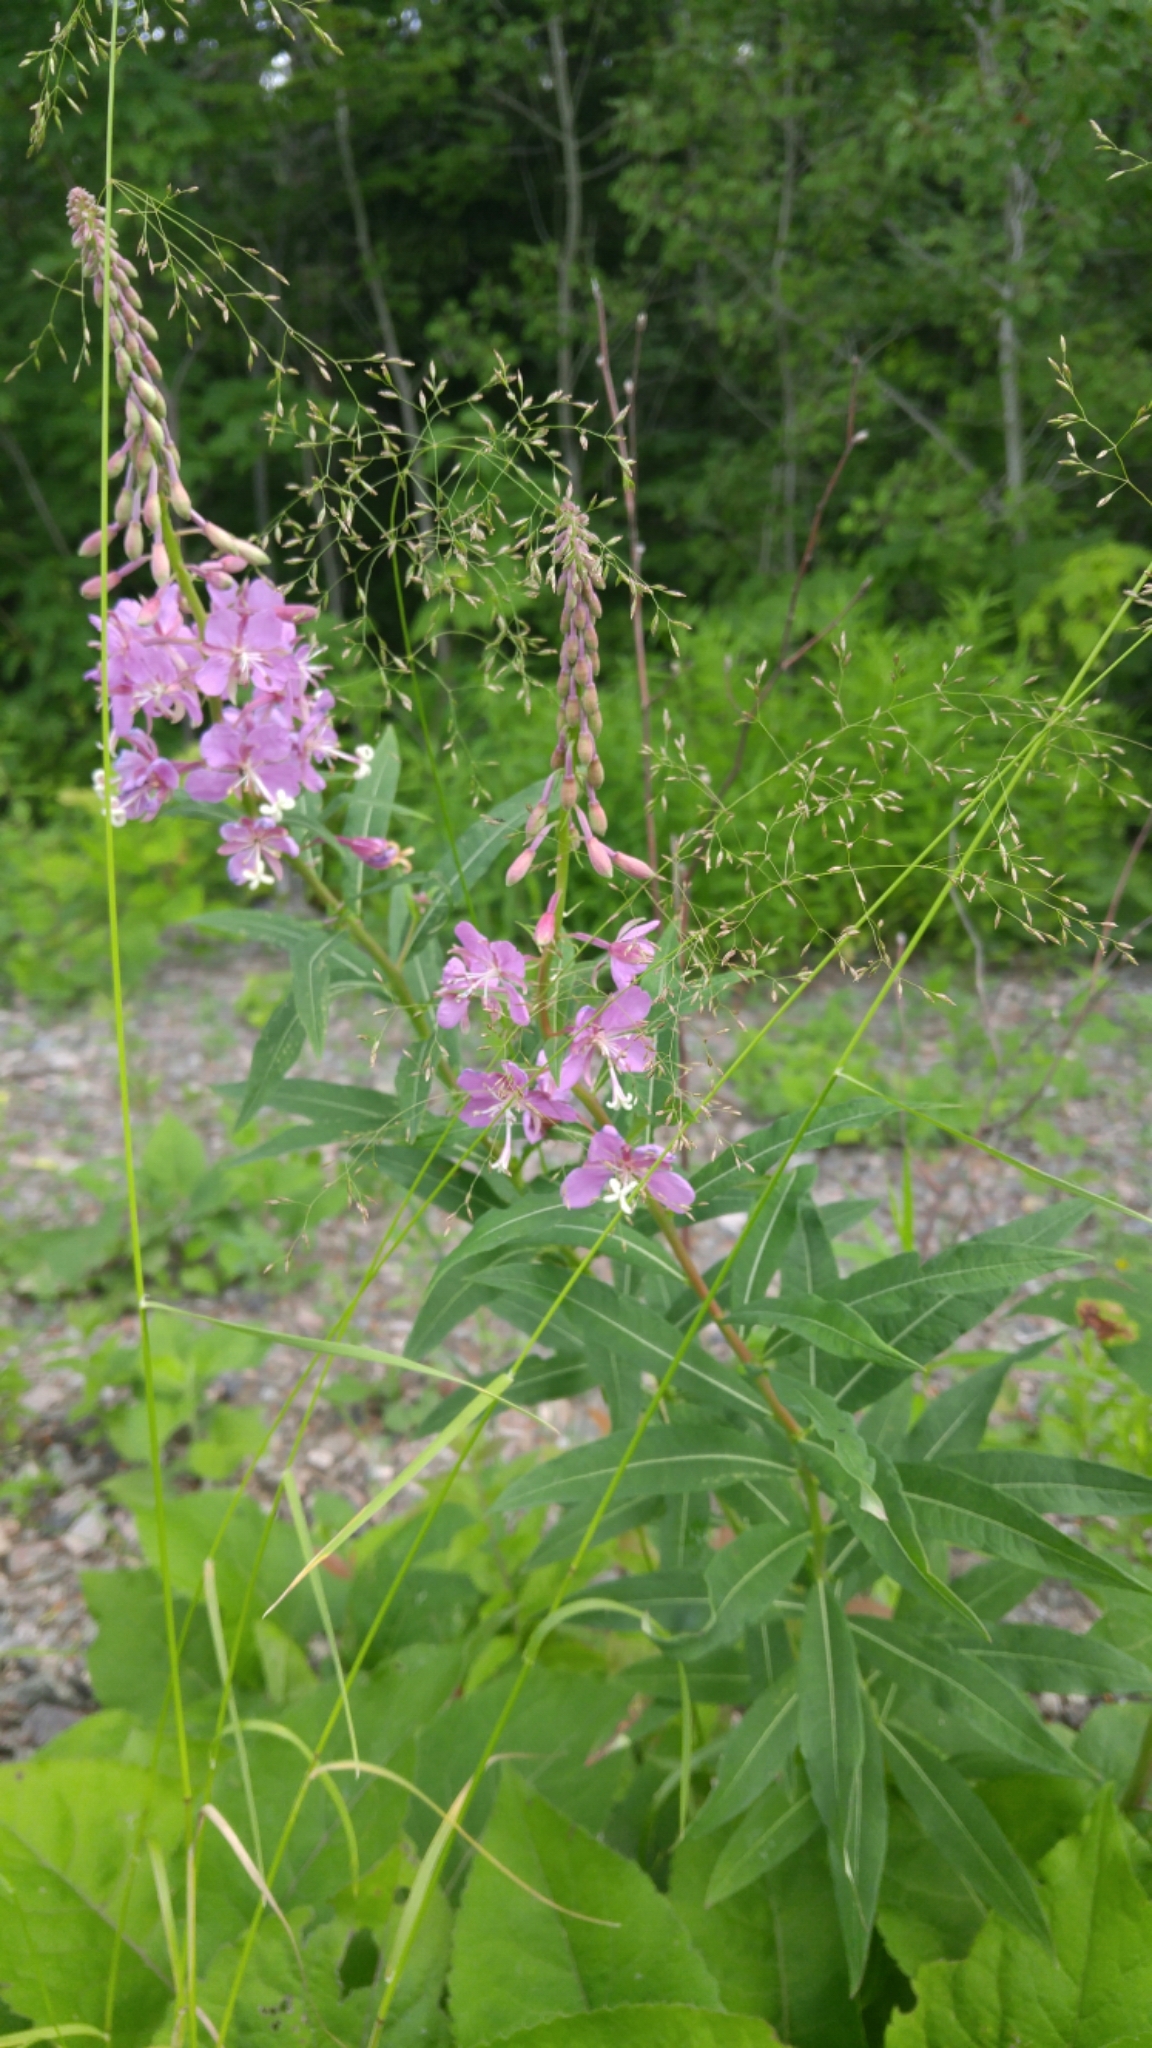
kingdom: Plantae
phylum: Tracheophyta
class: Magnoliopsida
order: Myrtales
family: Onagraceae
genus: Chamaenerion
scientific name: Chamaenerion angustifolium
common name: Fireweed
